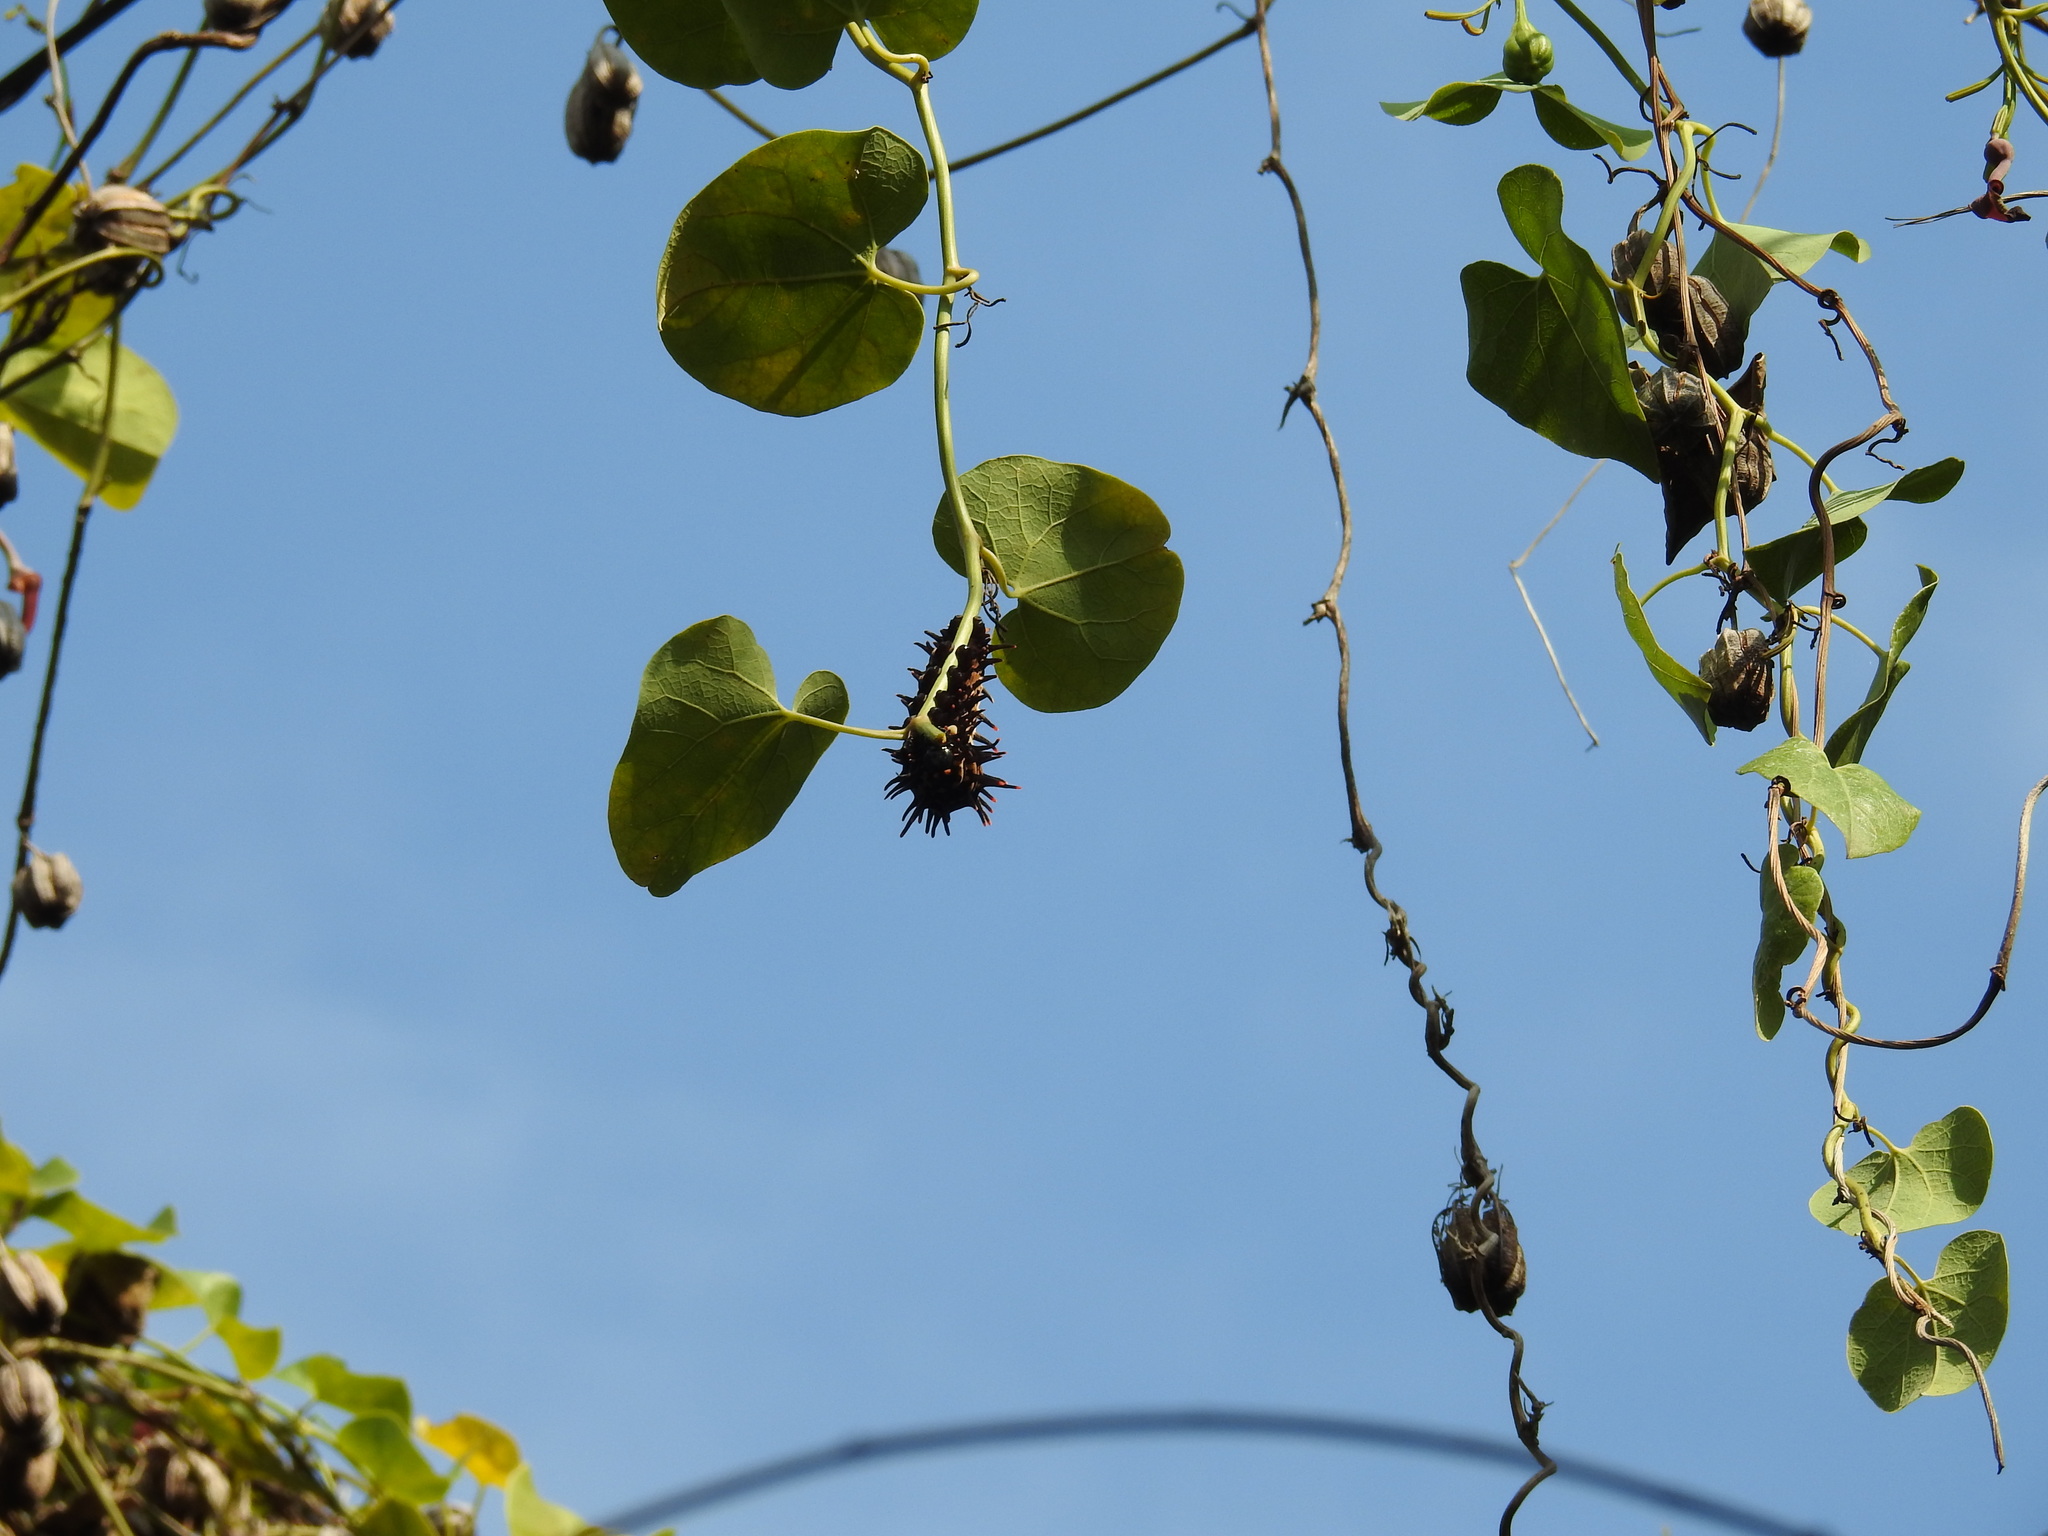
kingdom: Animalia
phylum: Arthropoda
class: Insecta
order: Lepidoptera
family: Papilionidae
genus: Troides
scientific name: Troides aeacus
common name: Golden birdwing
